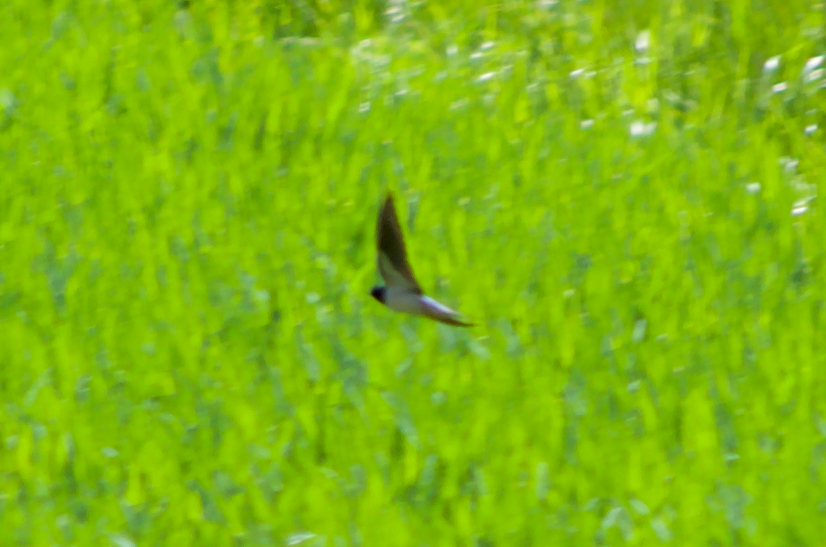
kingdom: Animalia
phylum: Chordata
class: Aves
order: Passeriformes
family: Hirundinidae
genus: Hirundo
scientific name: Hirundo rustica
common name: Barn swallow
